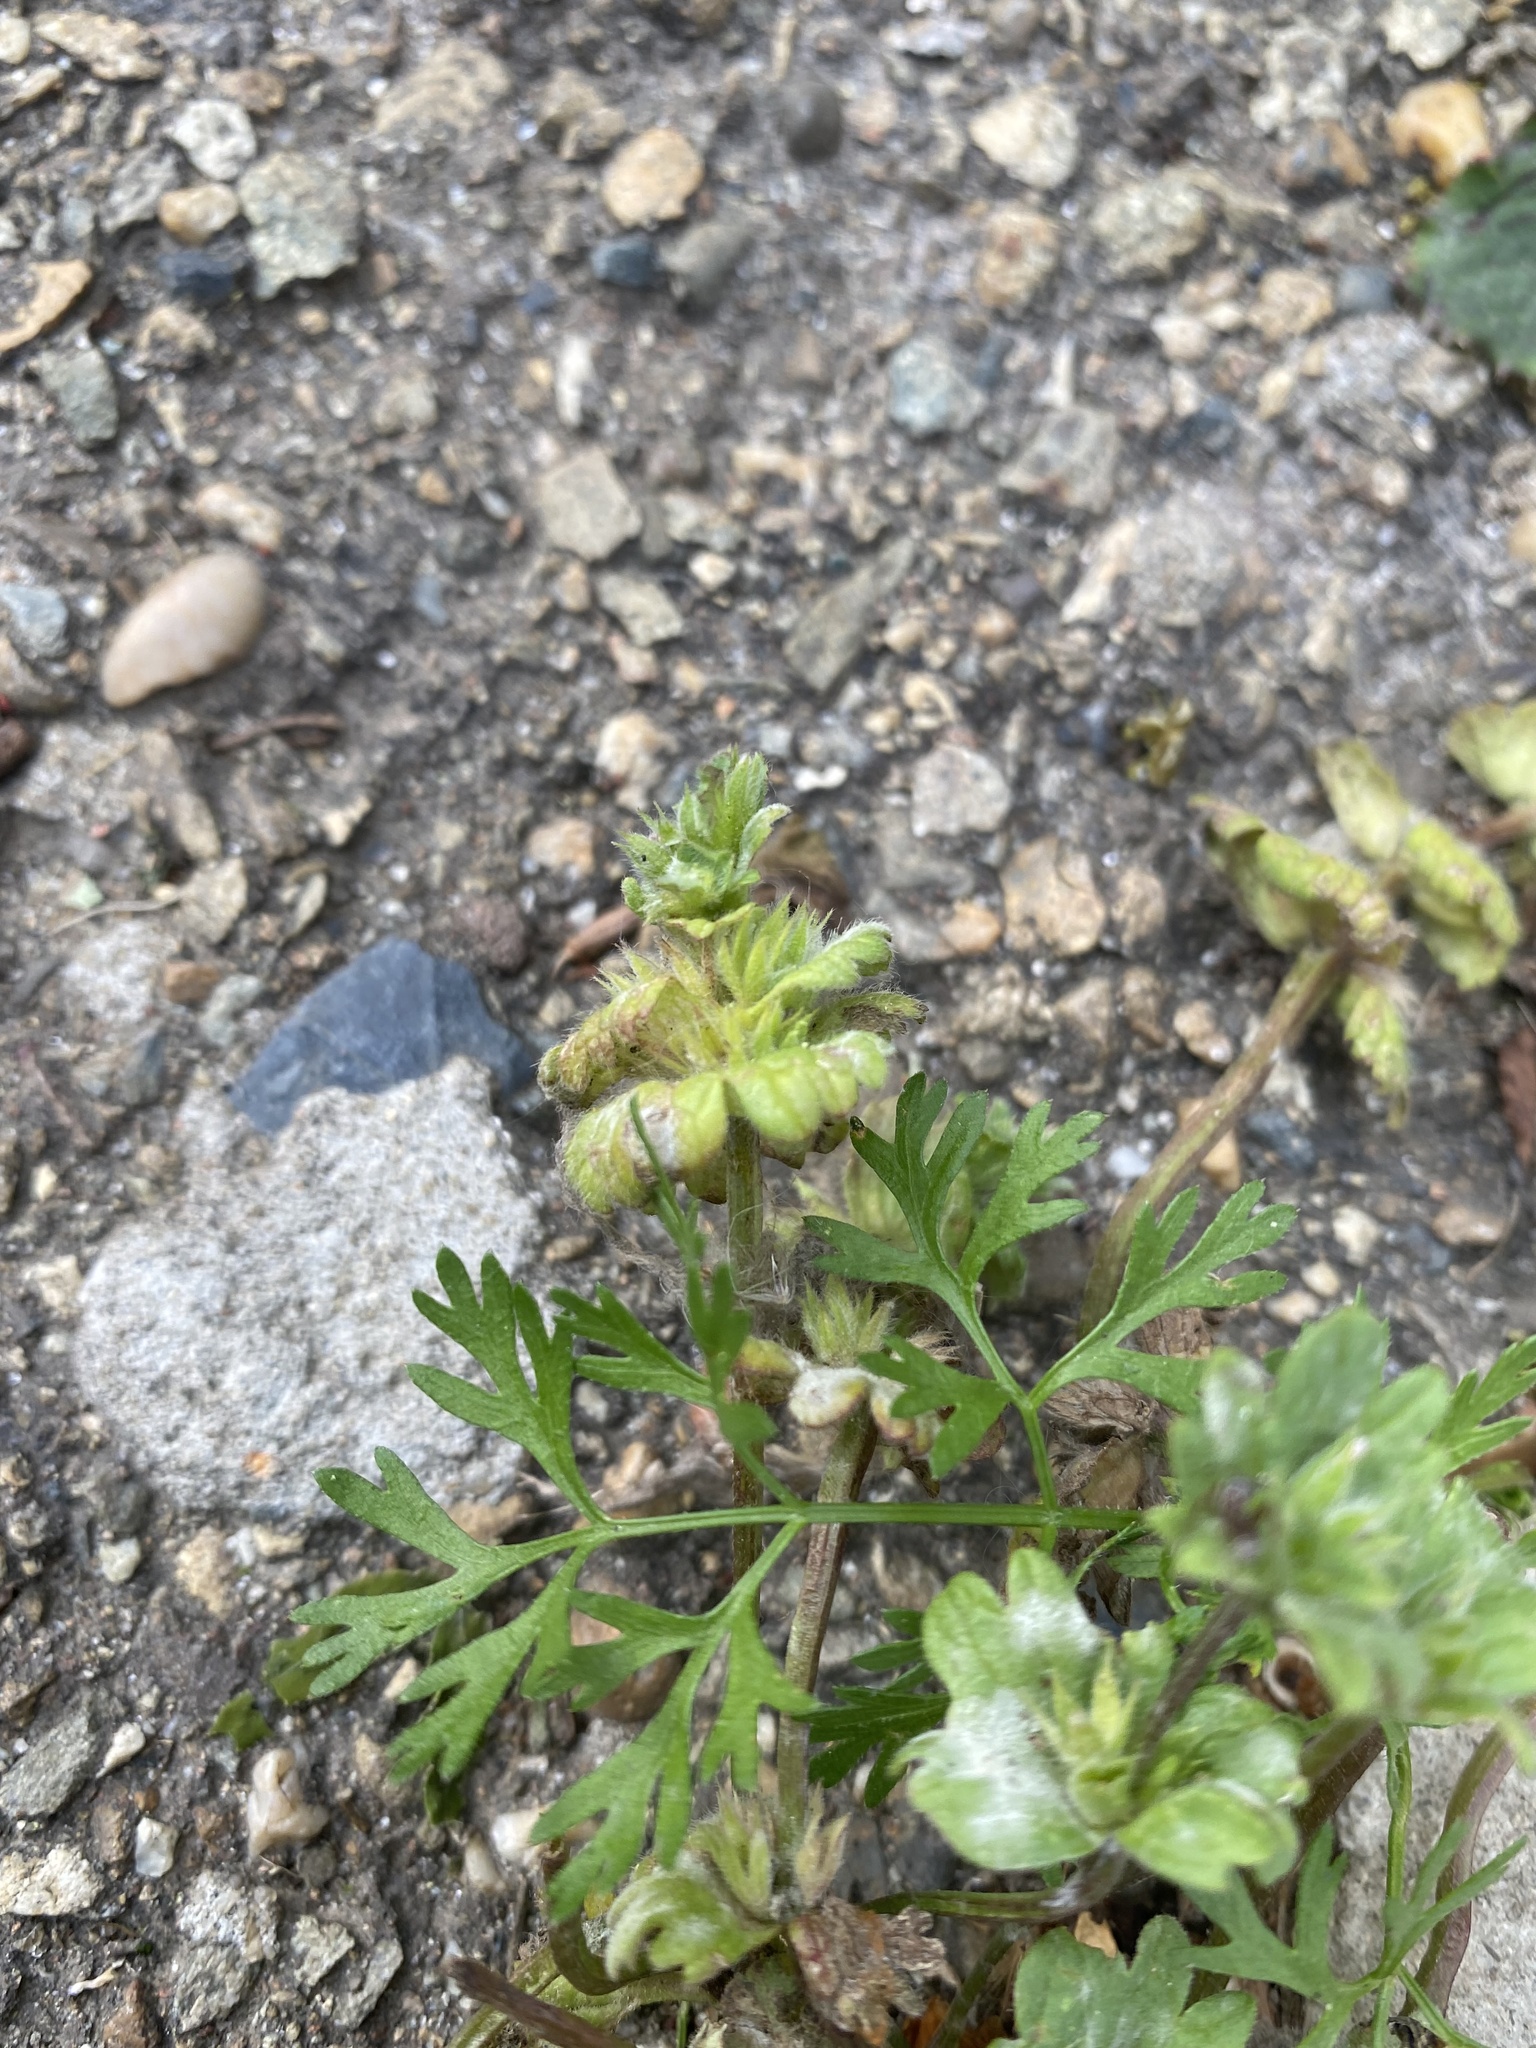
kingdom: Plantae
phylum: Tracheophyta
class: Magnoliopsida
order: Lamiales
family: Lamiaceae
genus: Lamium
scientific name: Lamium amplexicaule
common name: Henbit dead-nettle
